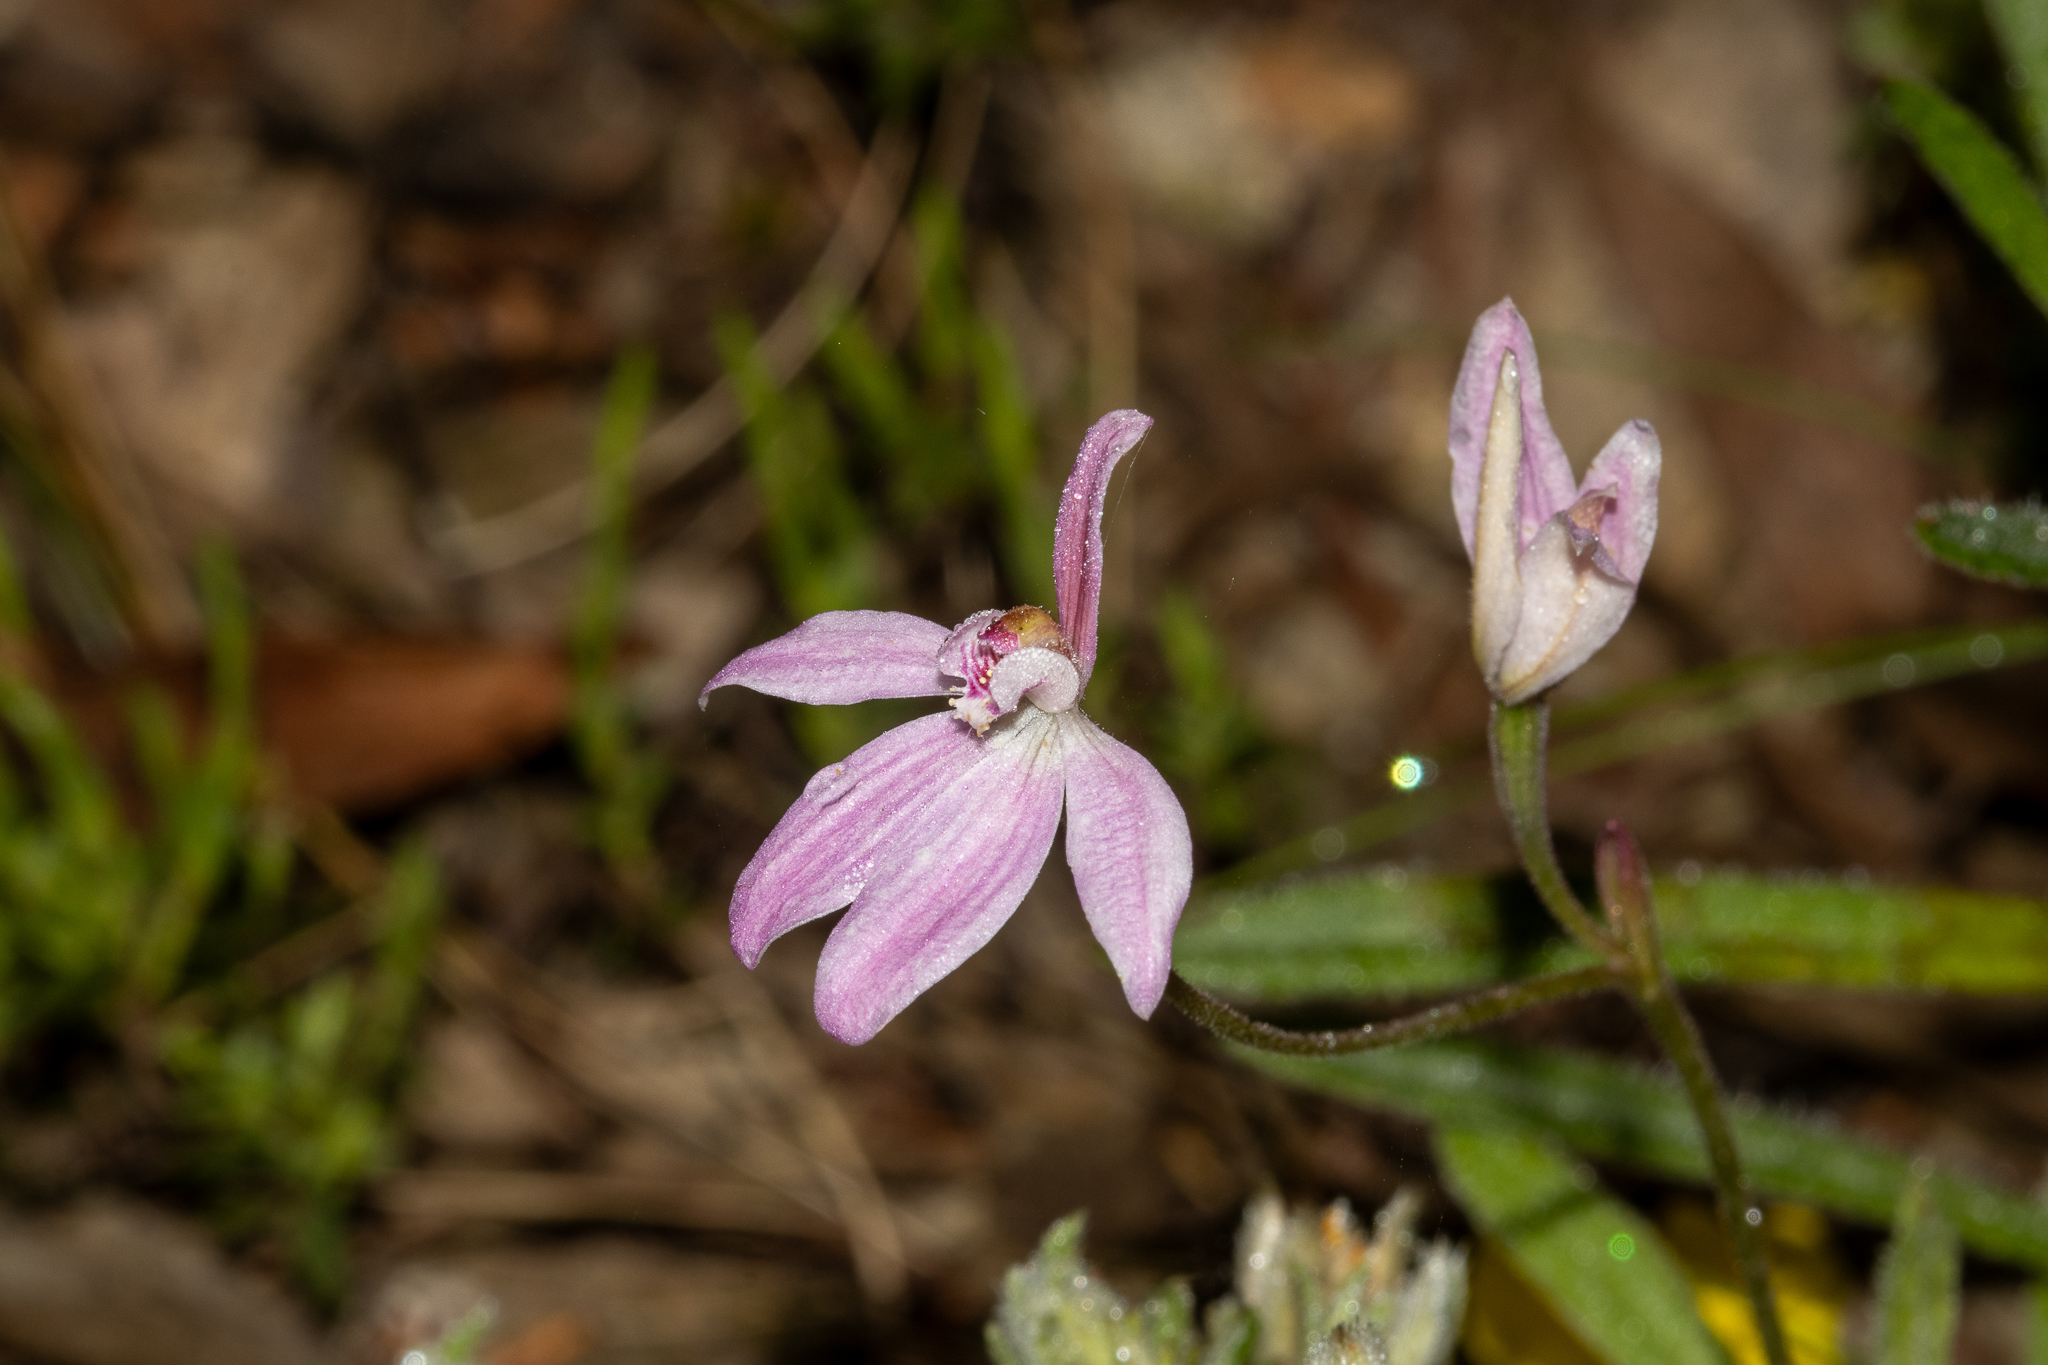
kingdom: Plantae
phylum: Tracheophyta
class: Liliopsida
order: Asparagales
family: Orchidaceae
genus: Caladenia
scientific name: Caladenia carnea
